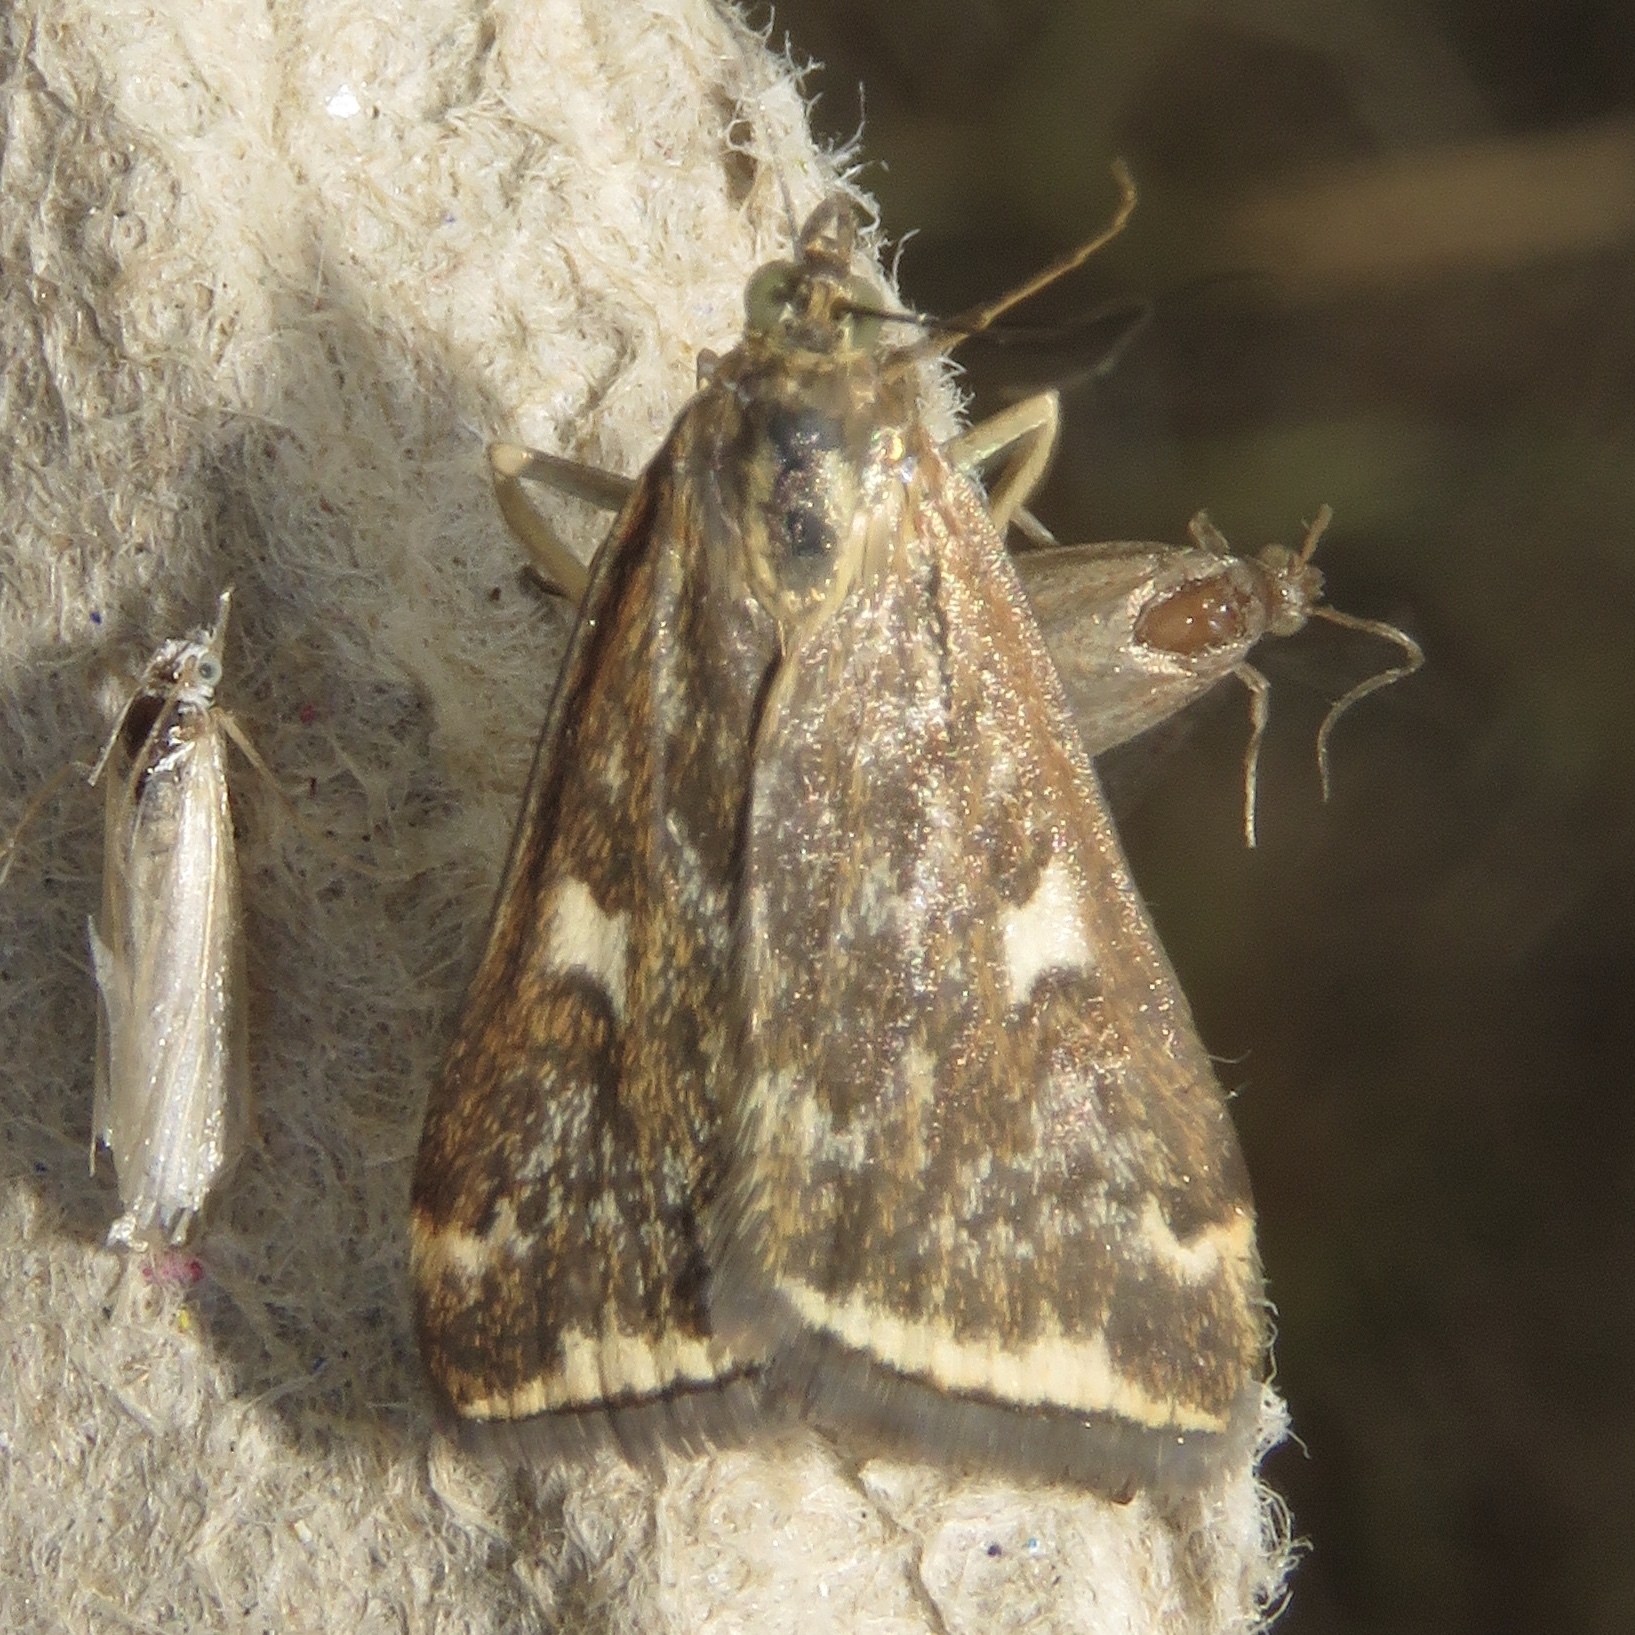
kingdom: Animalia
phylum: Arthropoda
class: Insecta
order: Lepidoptera
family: Crambidae
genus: Loxostege
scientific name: Loxostege
